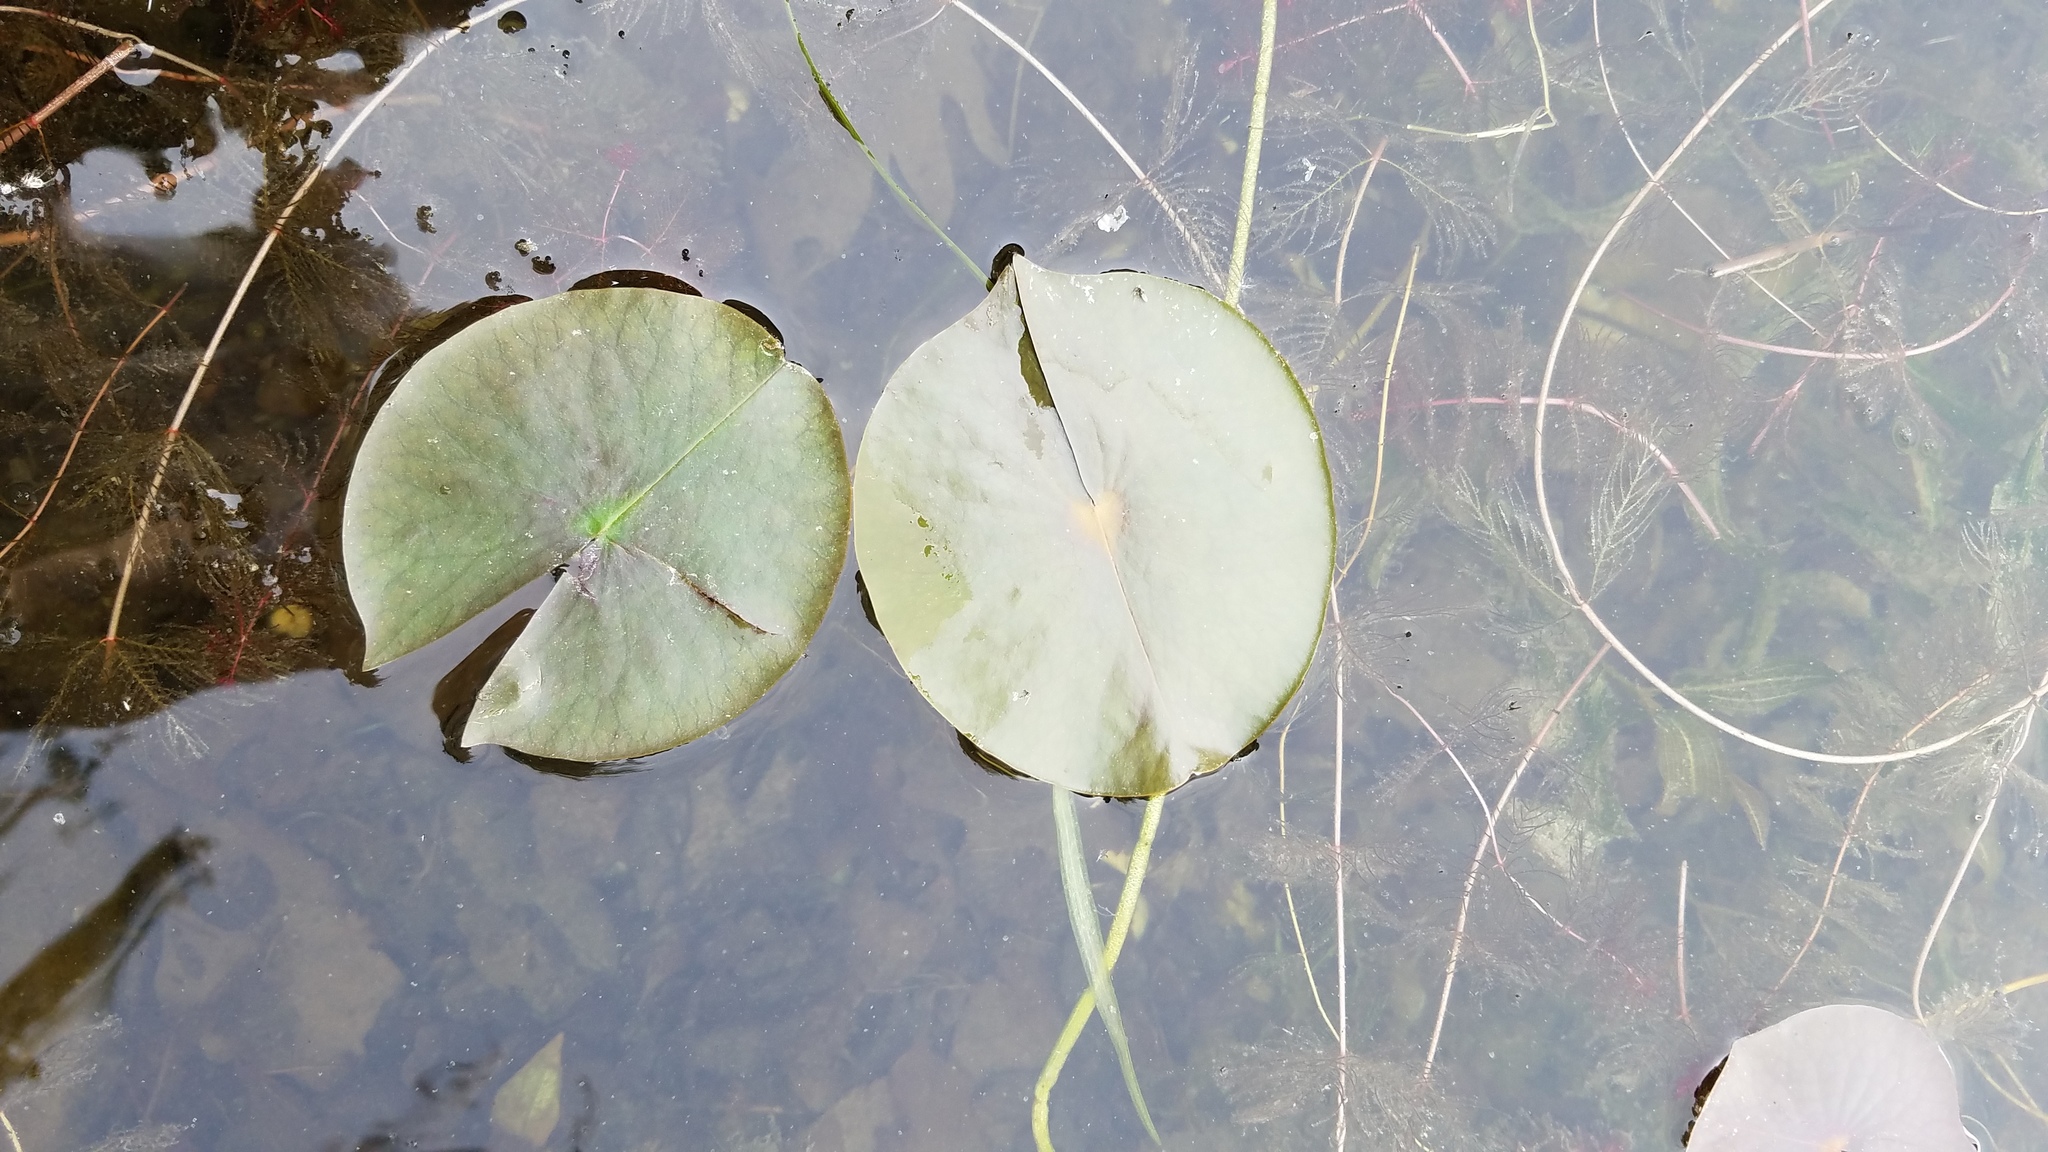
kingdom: Plantae
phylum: Tracheophyta
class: Magnoliopsida
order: Nymphaeales
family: Nymphaeaceae
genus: Nymphaea
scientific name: Nymphaea odorata
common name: Fragrant water-lily
